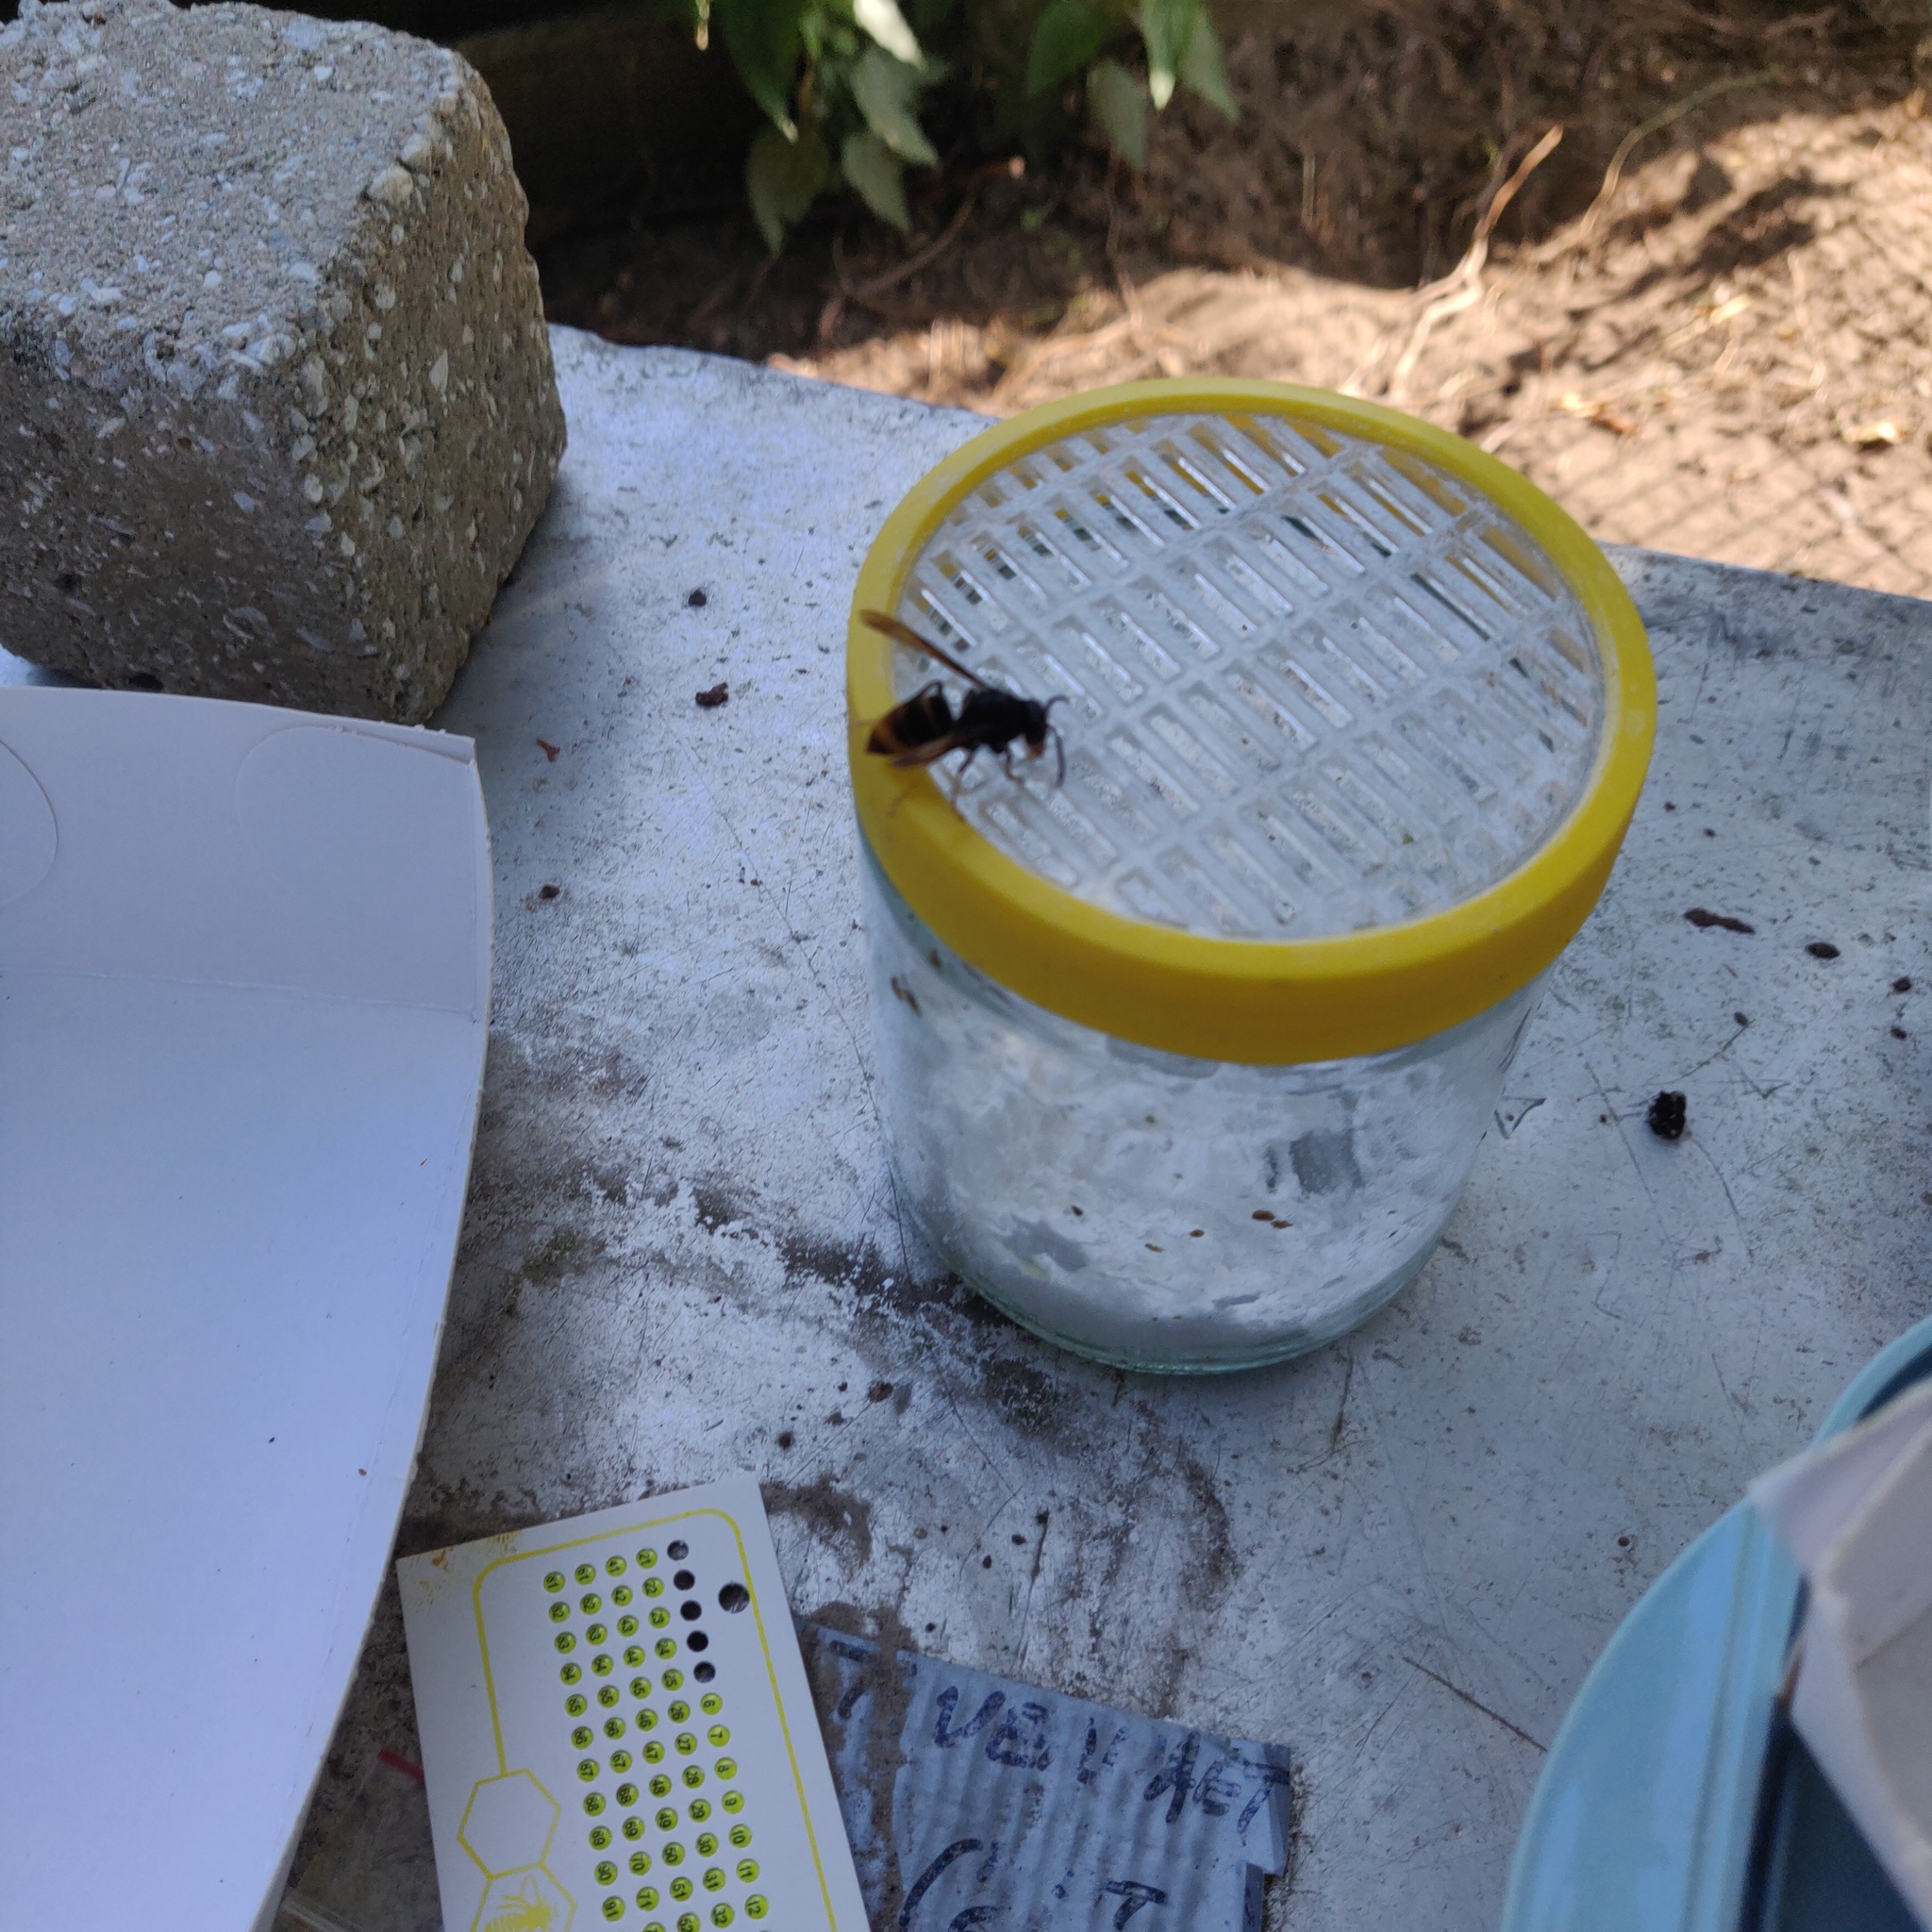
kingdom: Animalia
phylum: Arthropoda
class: Insecta
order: Hymenoptera
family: Vespidae
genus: Vespa
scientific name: Vespa velutina
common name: Asian hornet
